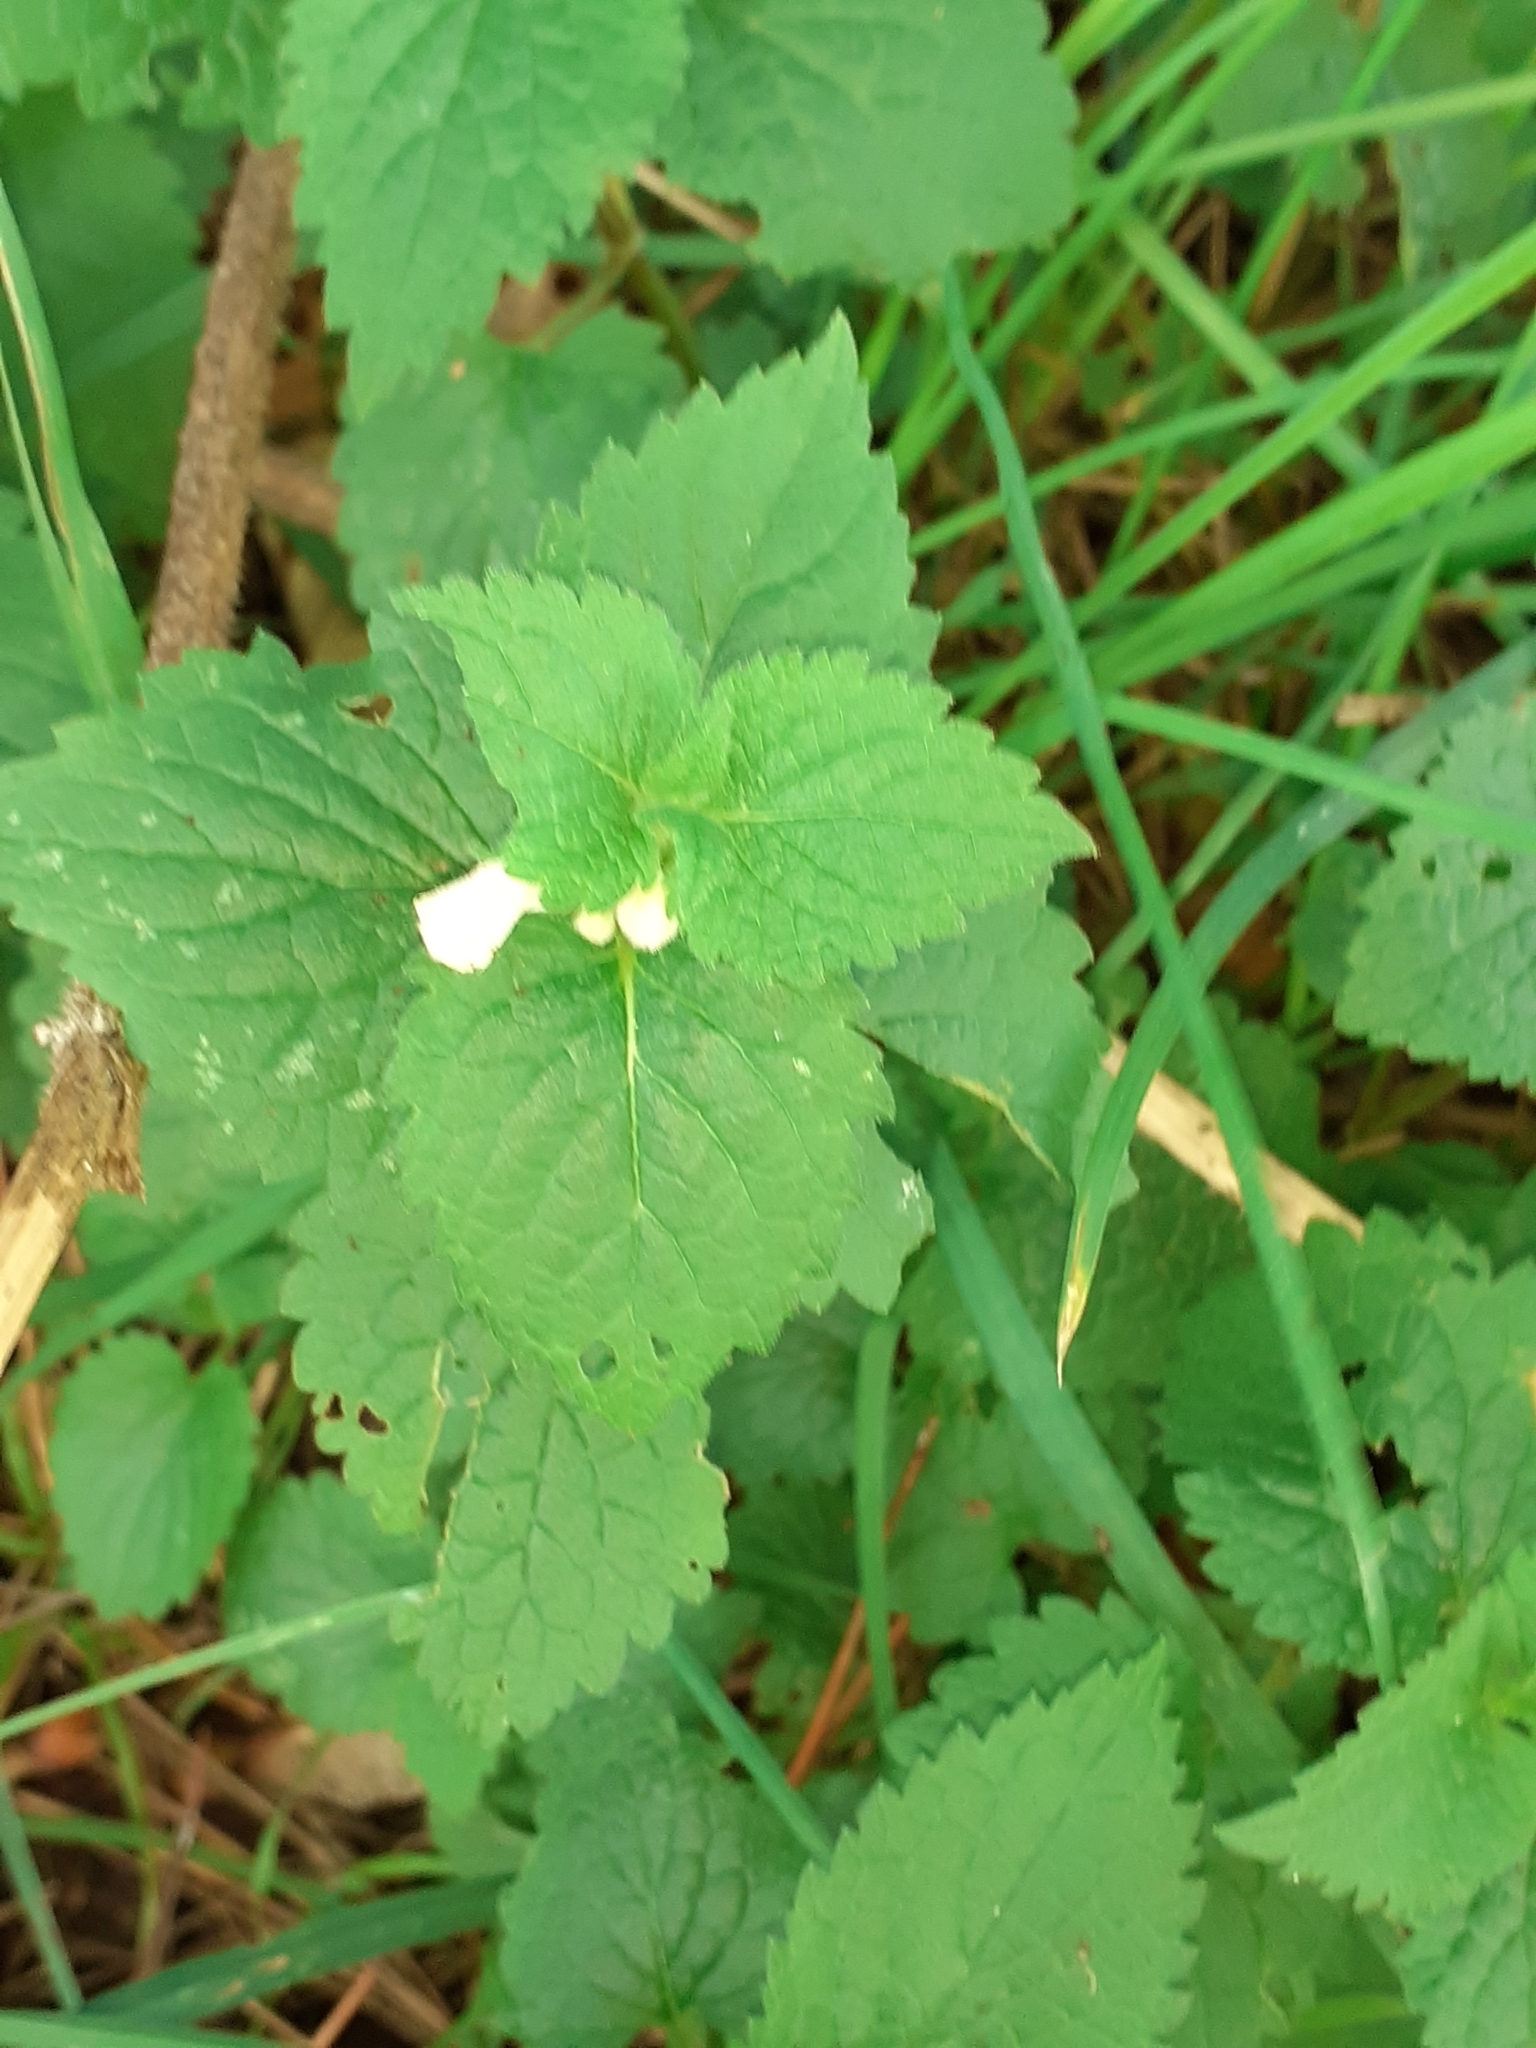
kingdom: Plantae
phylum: Tracheophyta
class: Magnoliopsida
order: Lamiales
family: Lamiaceae
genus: Lamium
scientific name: Lamium album
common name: White dead-nettle
